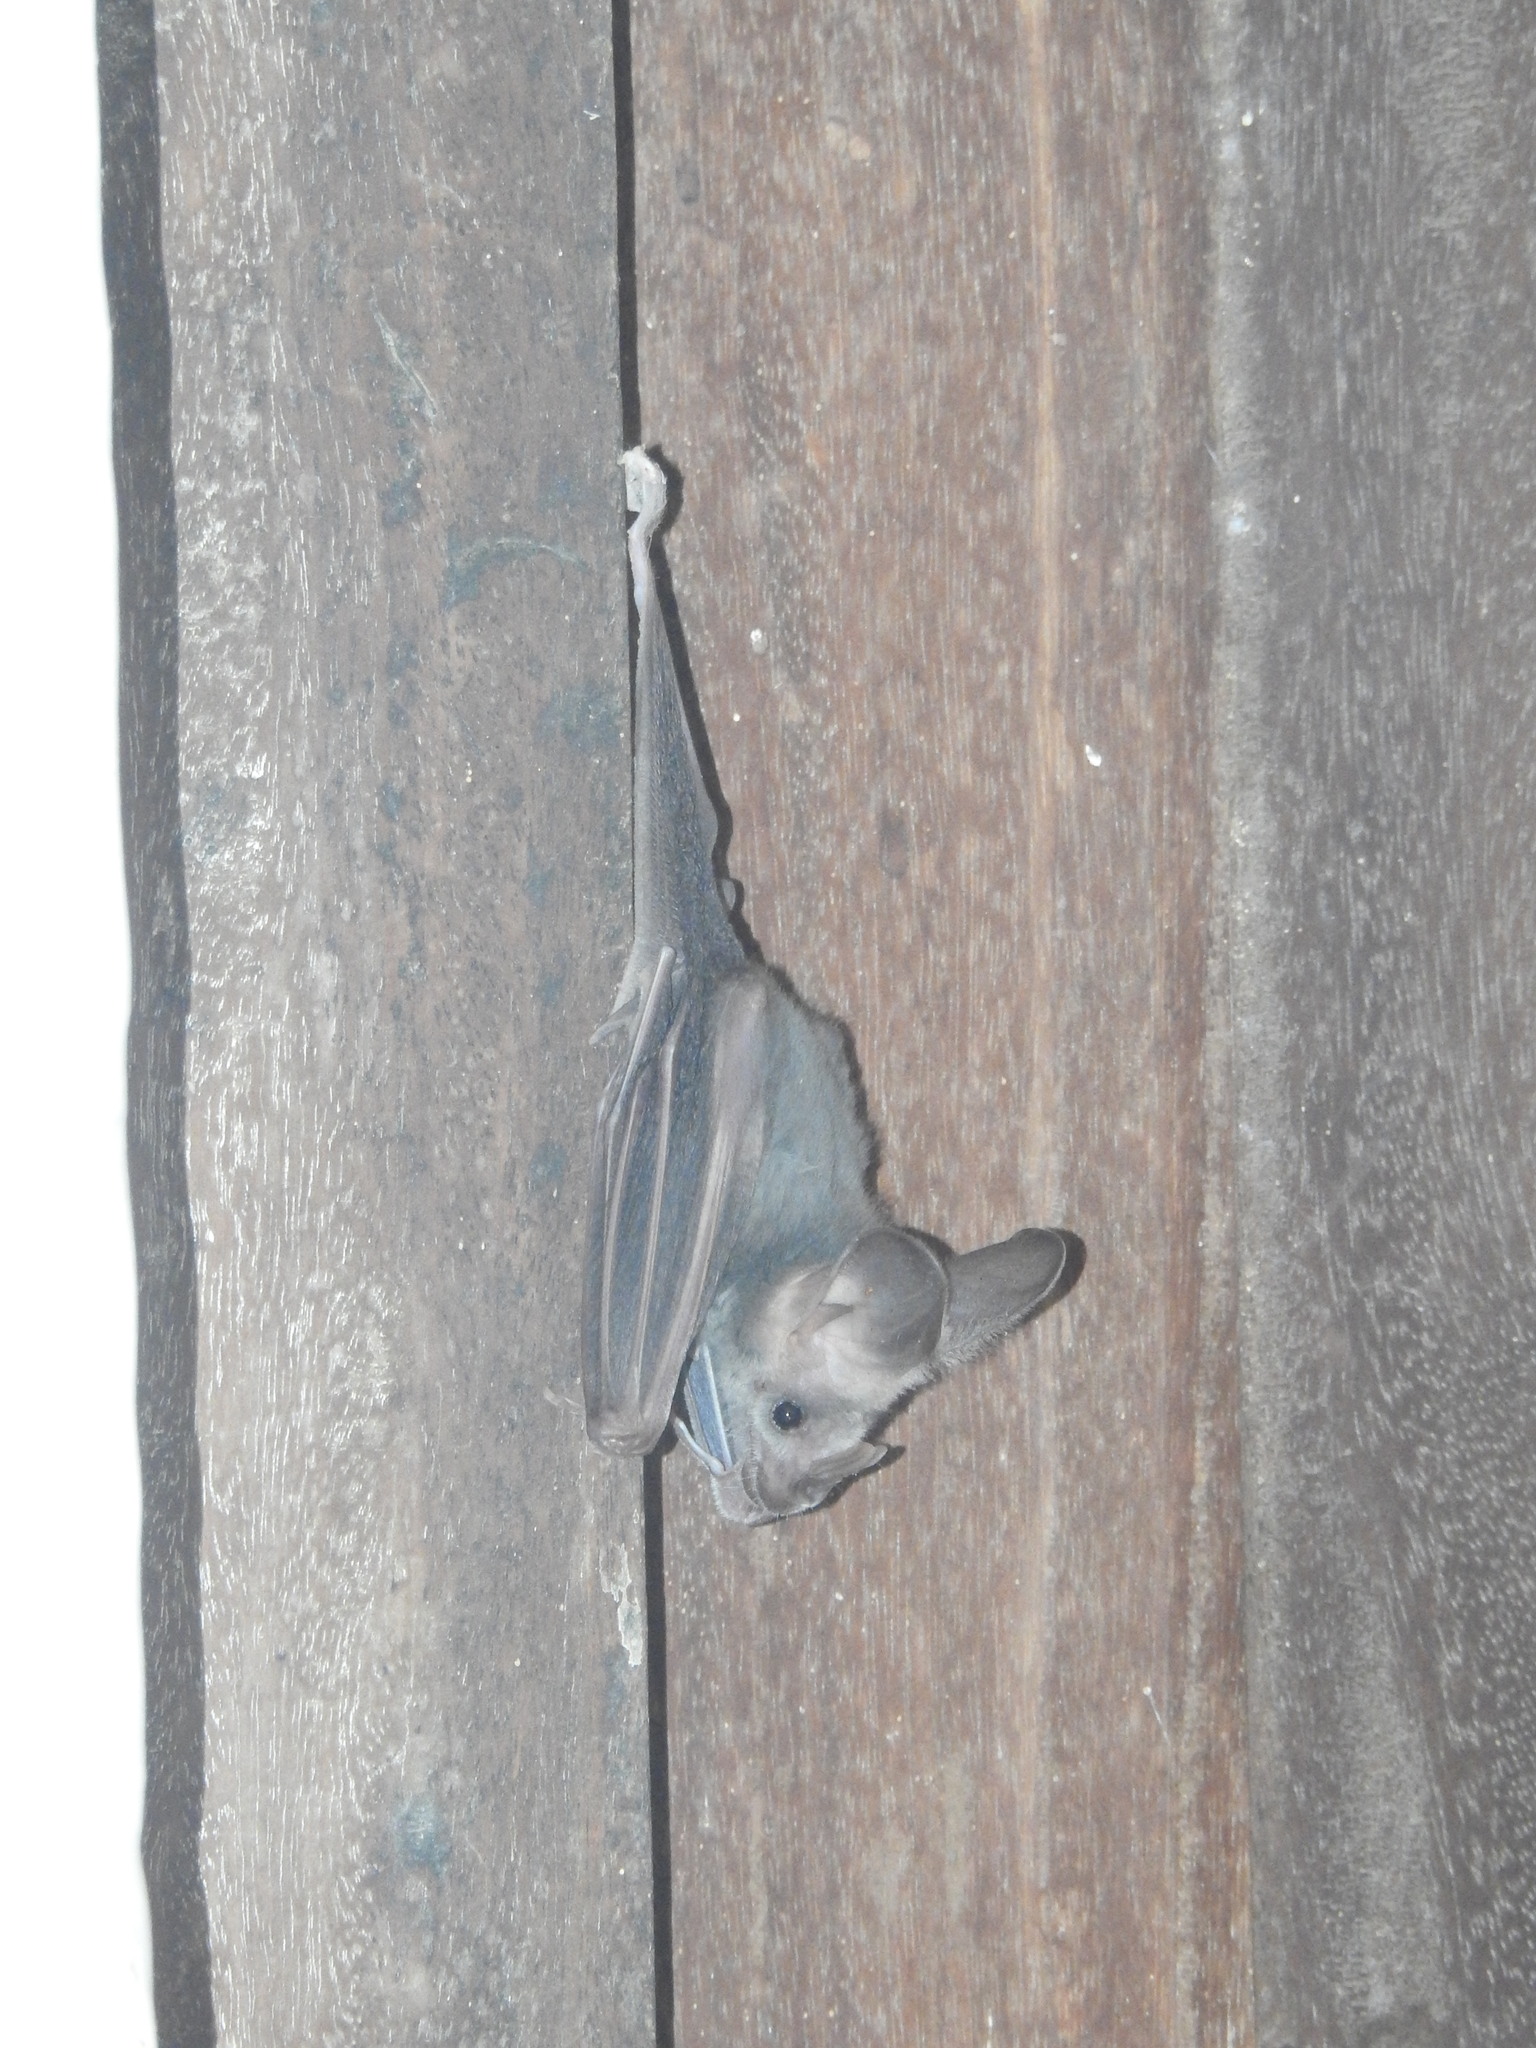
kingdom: Animalia
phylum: Chordata
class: Mammalia
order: Chiroptera
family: Megadermatidae
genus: Lyroderma
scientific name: Lyroderma lyra
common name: Greater false vampire bat
